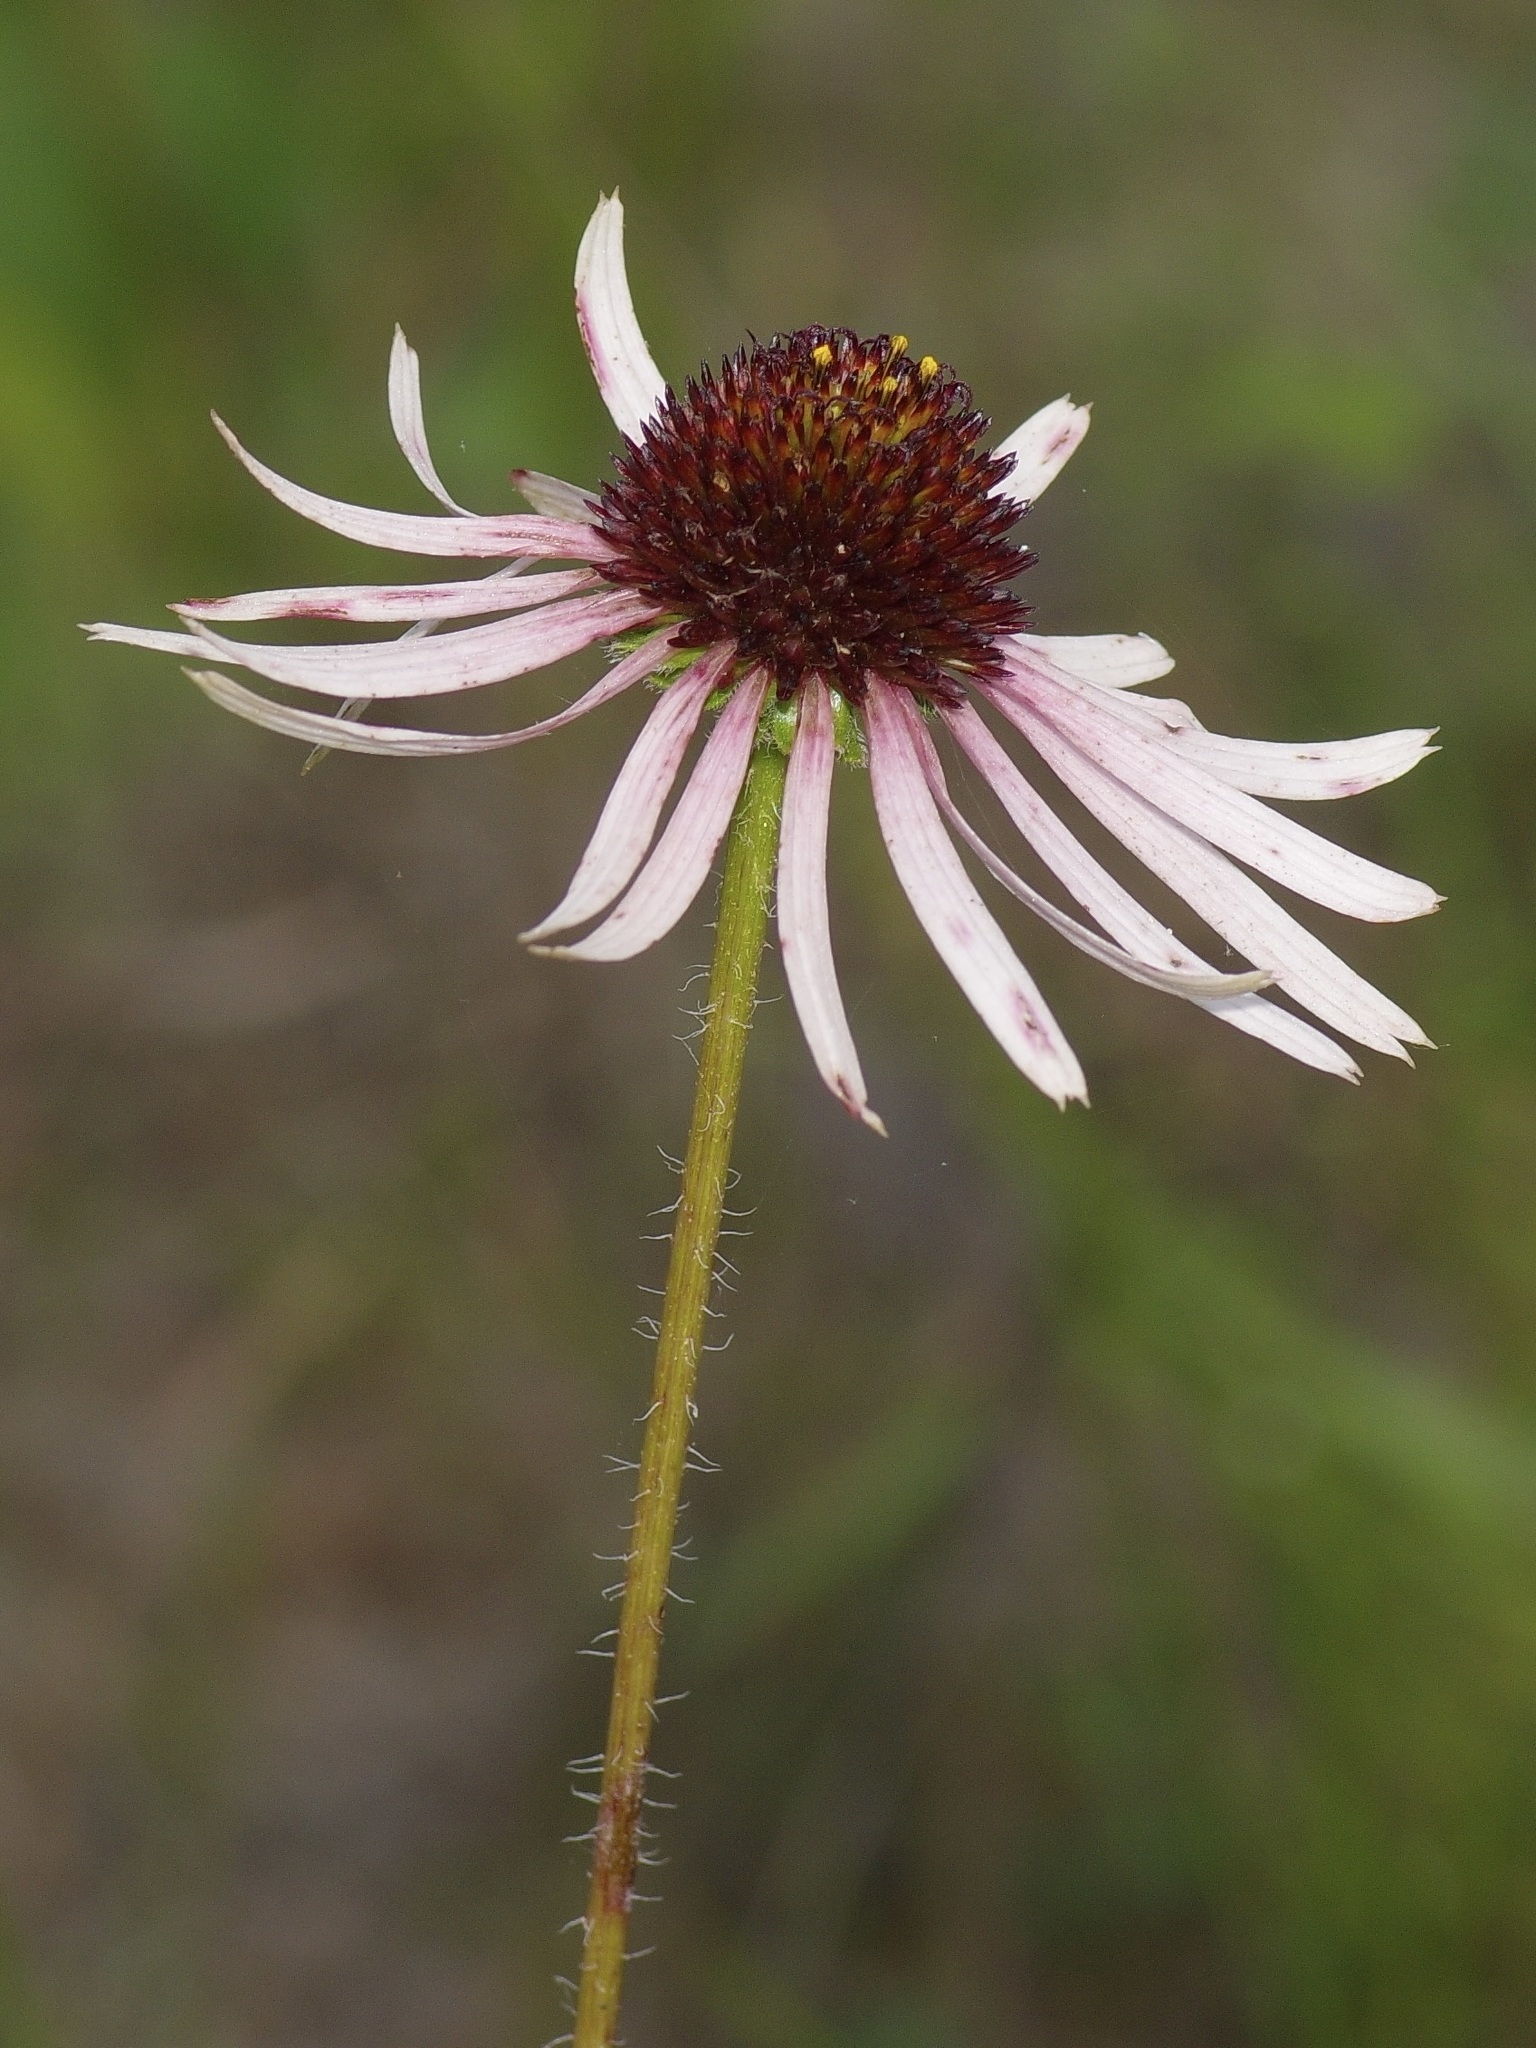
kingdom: Plantae
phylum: Tracheophyta
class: Magnoliopsida
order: Asterales
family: Asteraceae
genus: Echinacea
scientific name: Echinacea sanguinea
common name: Sanguine purple-coneflower
